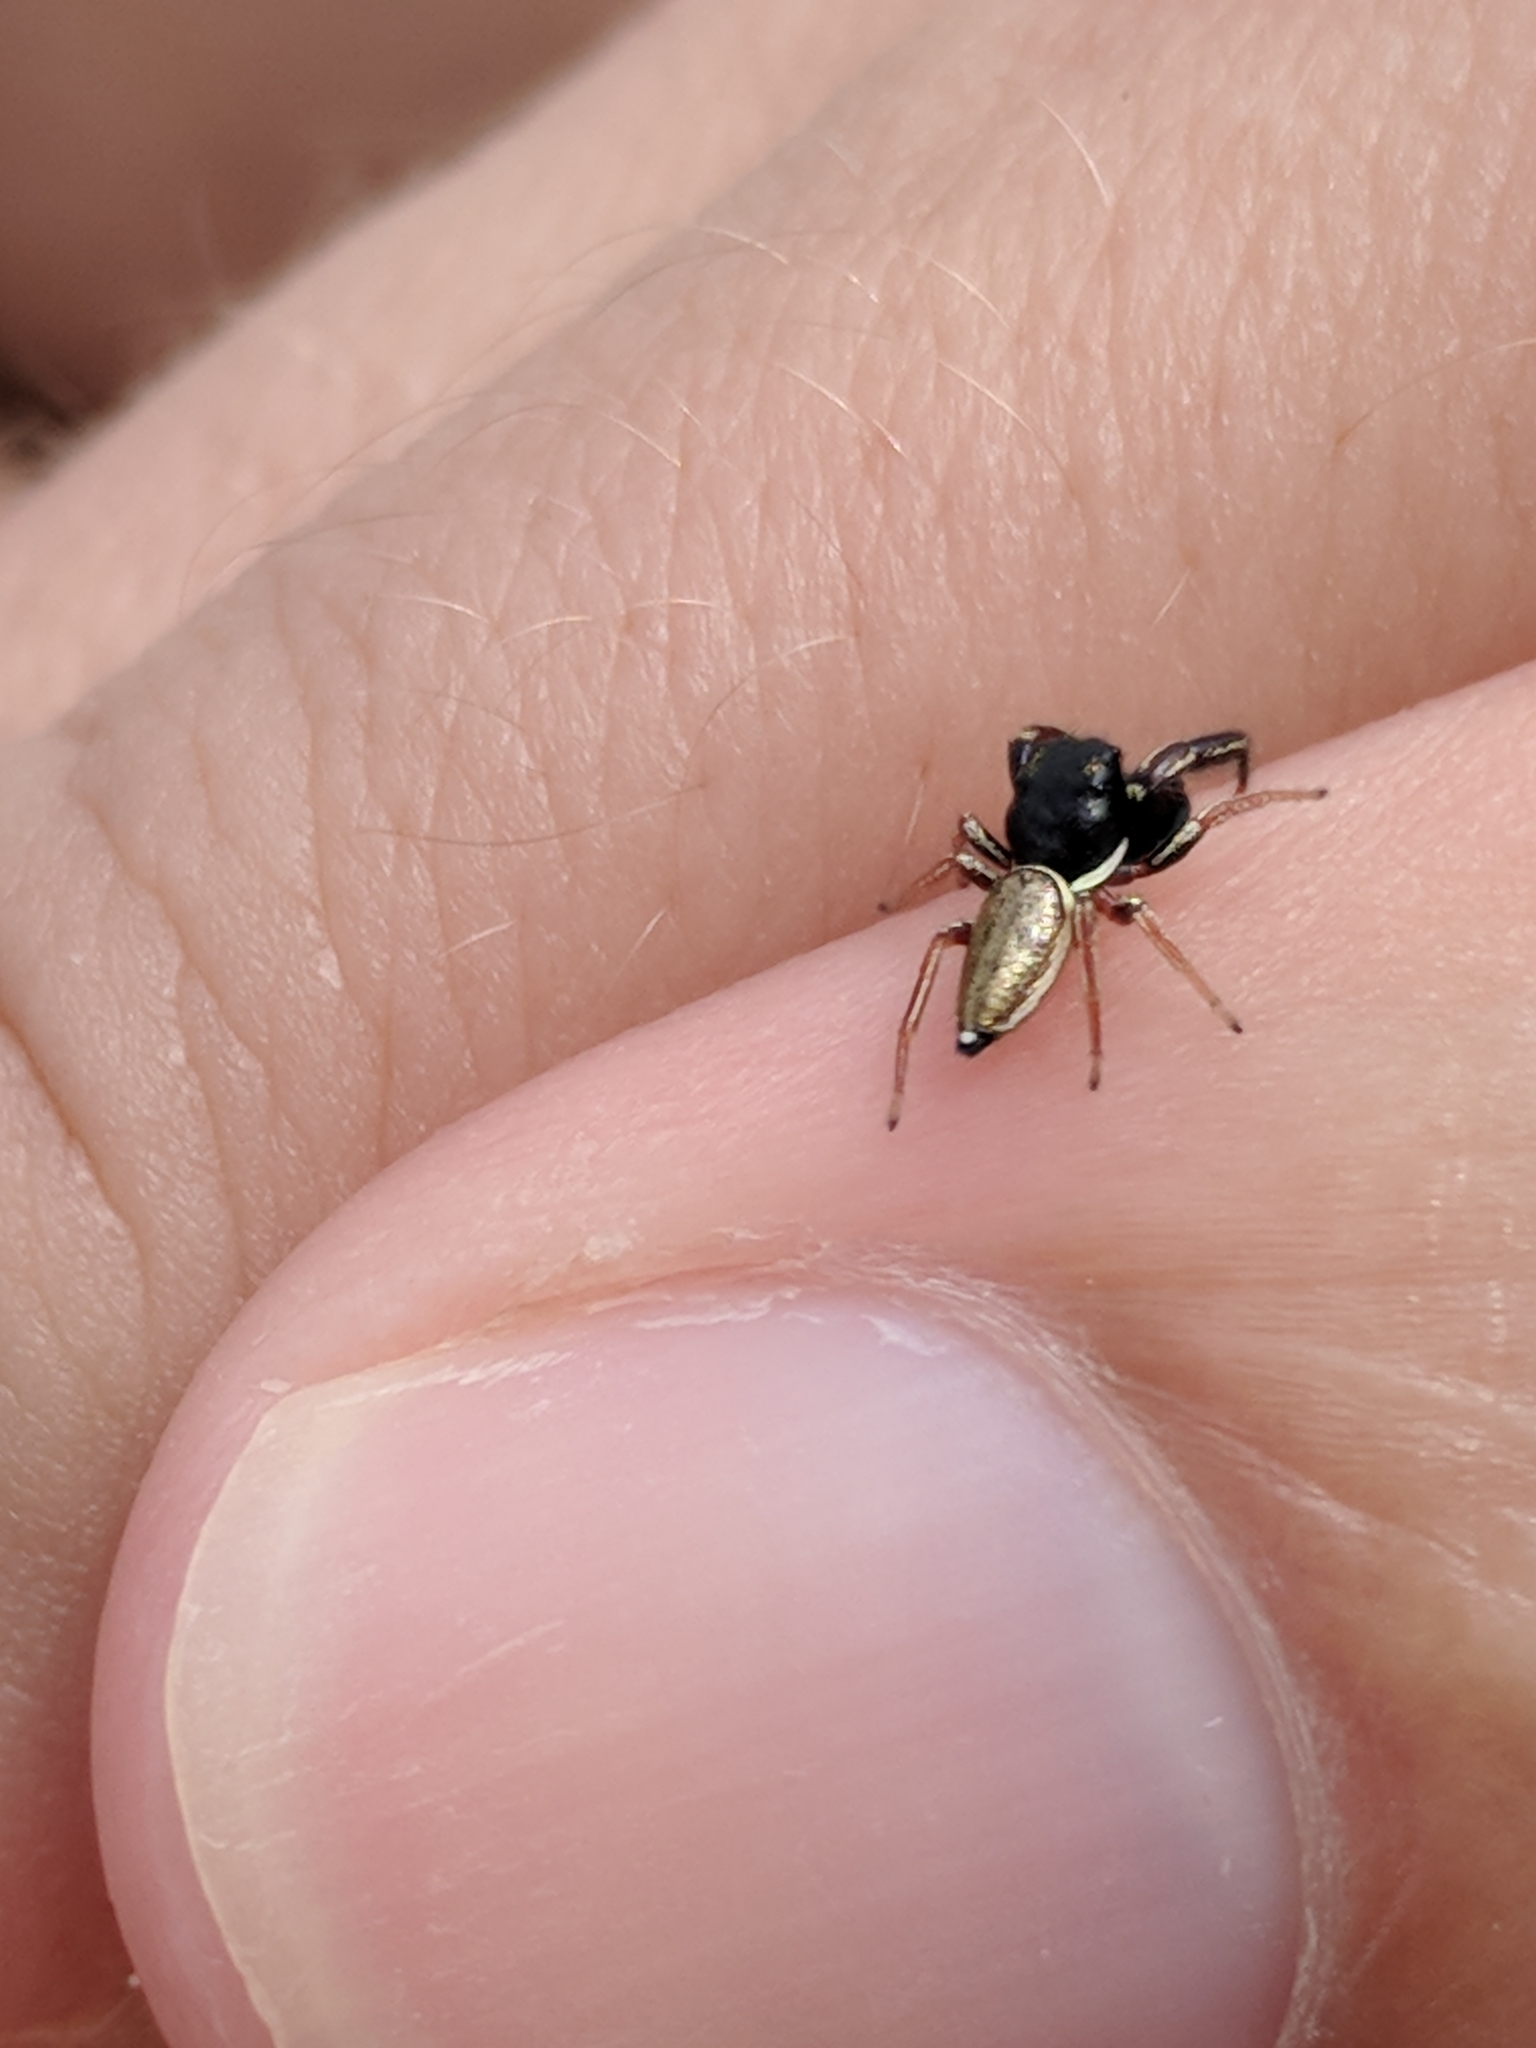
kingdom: Animalia
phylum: Arthropoda
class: Arachnida
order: Araneae
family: Salticidae
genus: Sassacus
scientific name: Sassacus vitis
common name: Jumping spiders
